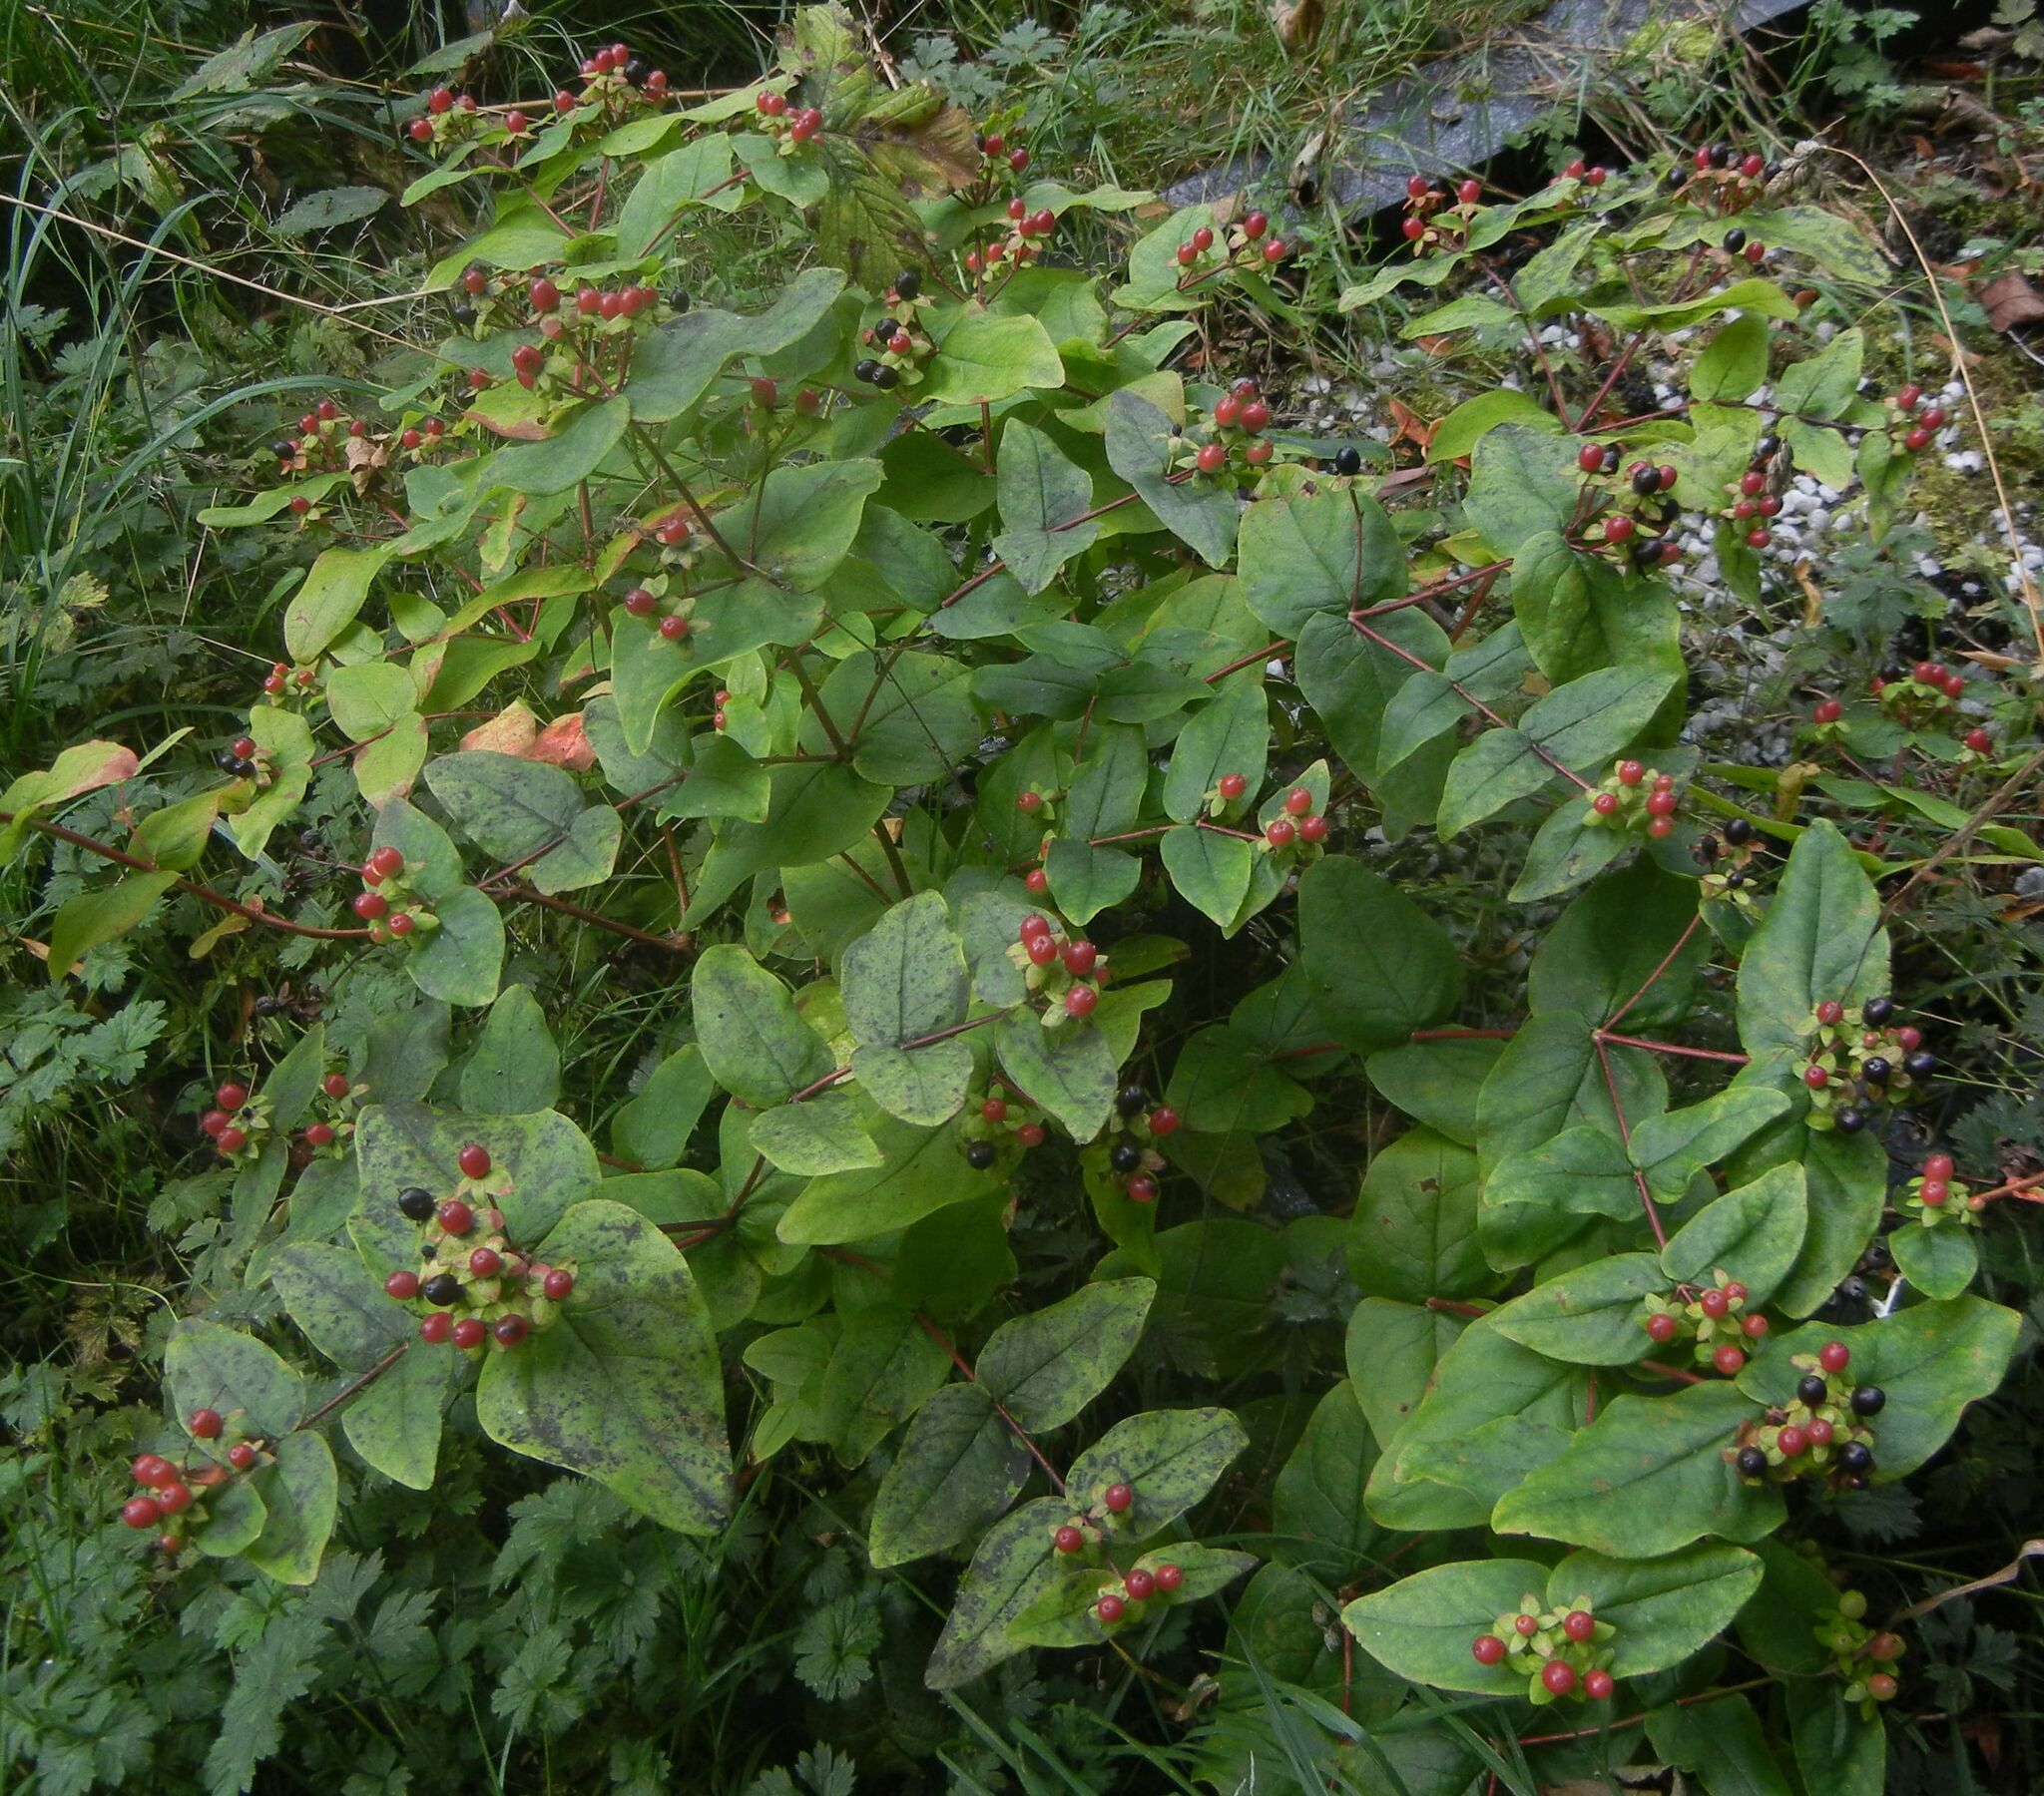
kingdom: Plantae
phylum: Tracheophyta
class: Magnoliopsida
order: Malpighiales
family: Hypericaceae
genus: Hypericum
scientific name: Hypericum androsaemum
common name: Sweet-amber
